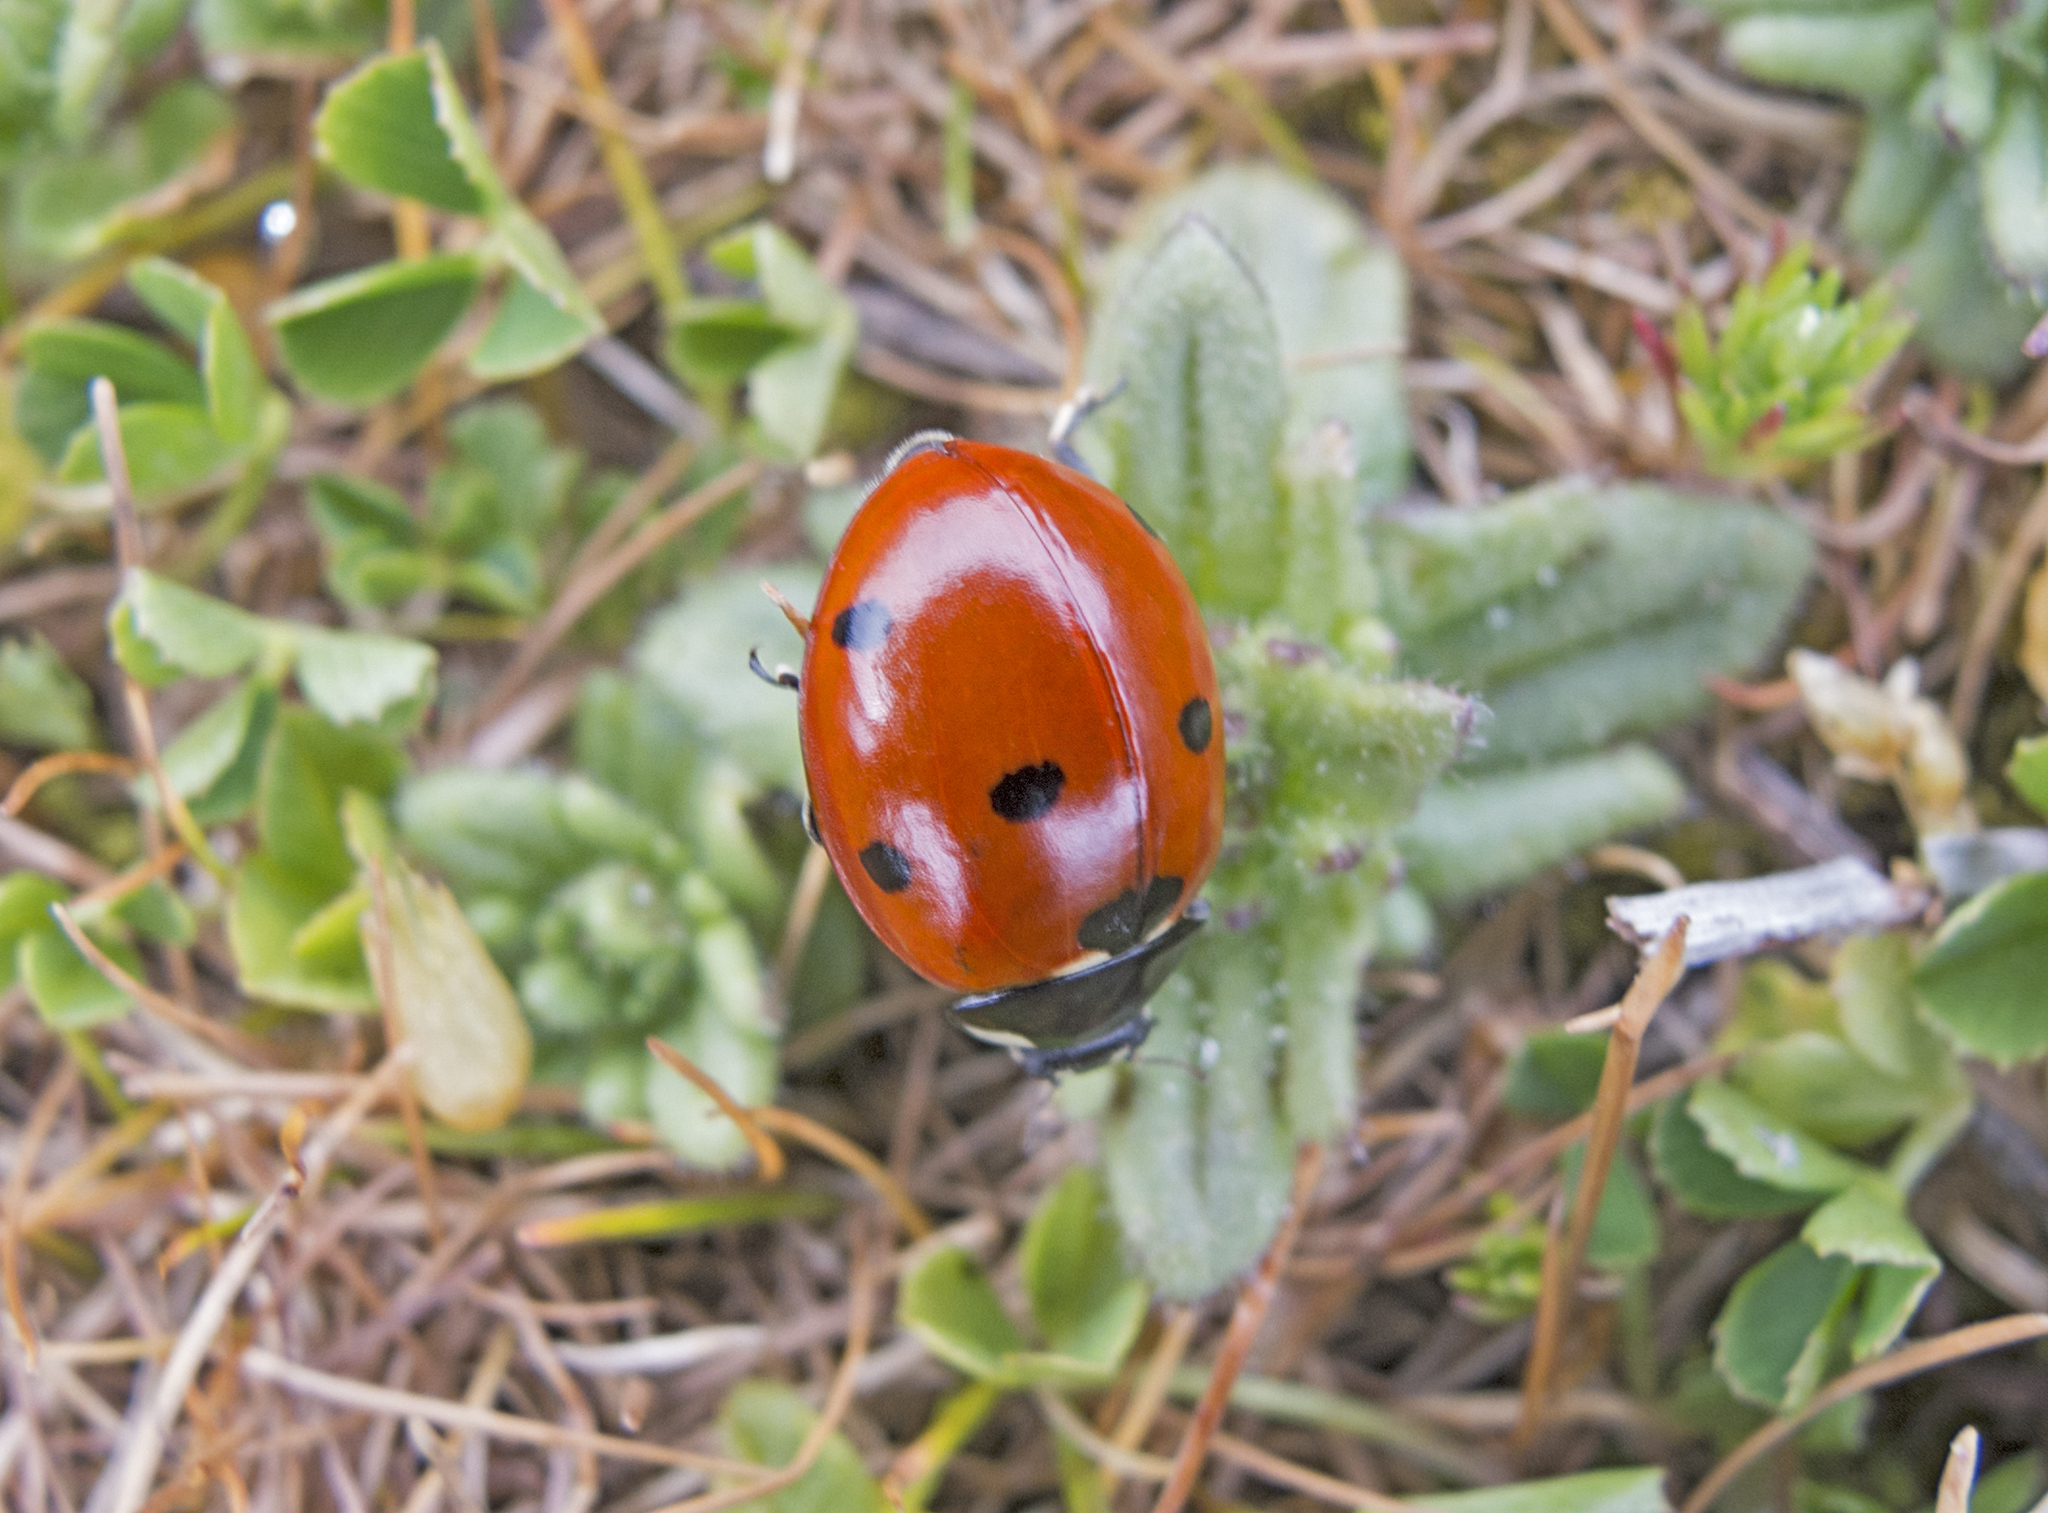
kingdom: Animalia
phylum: Arthropoda
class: Insecta
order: Coleoptera
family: Coccinellidae
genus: Coccinella
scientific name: Coccinella septempunctata
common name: Sevenspotted lady beetle
